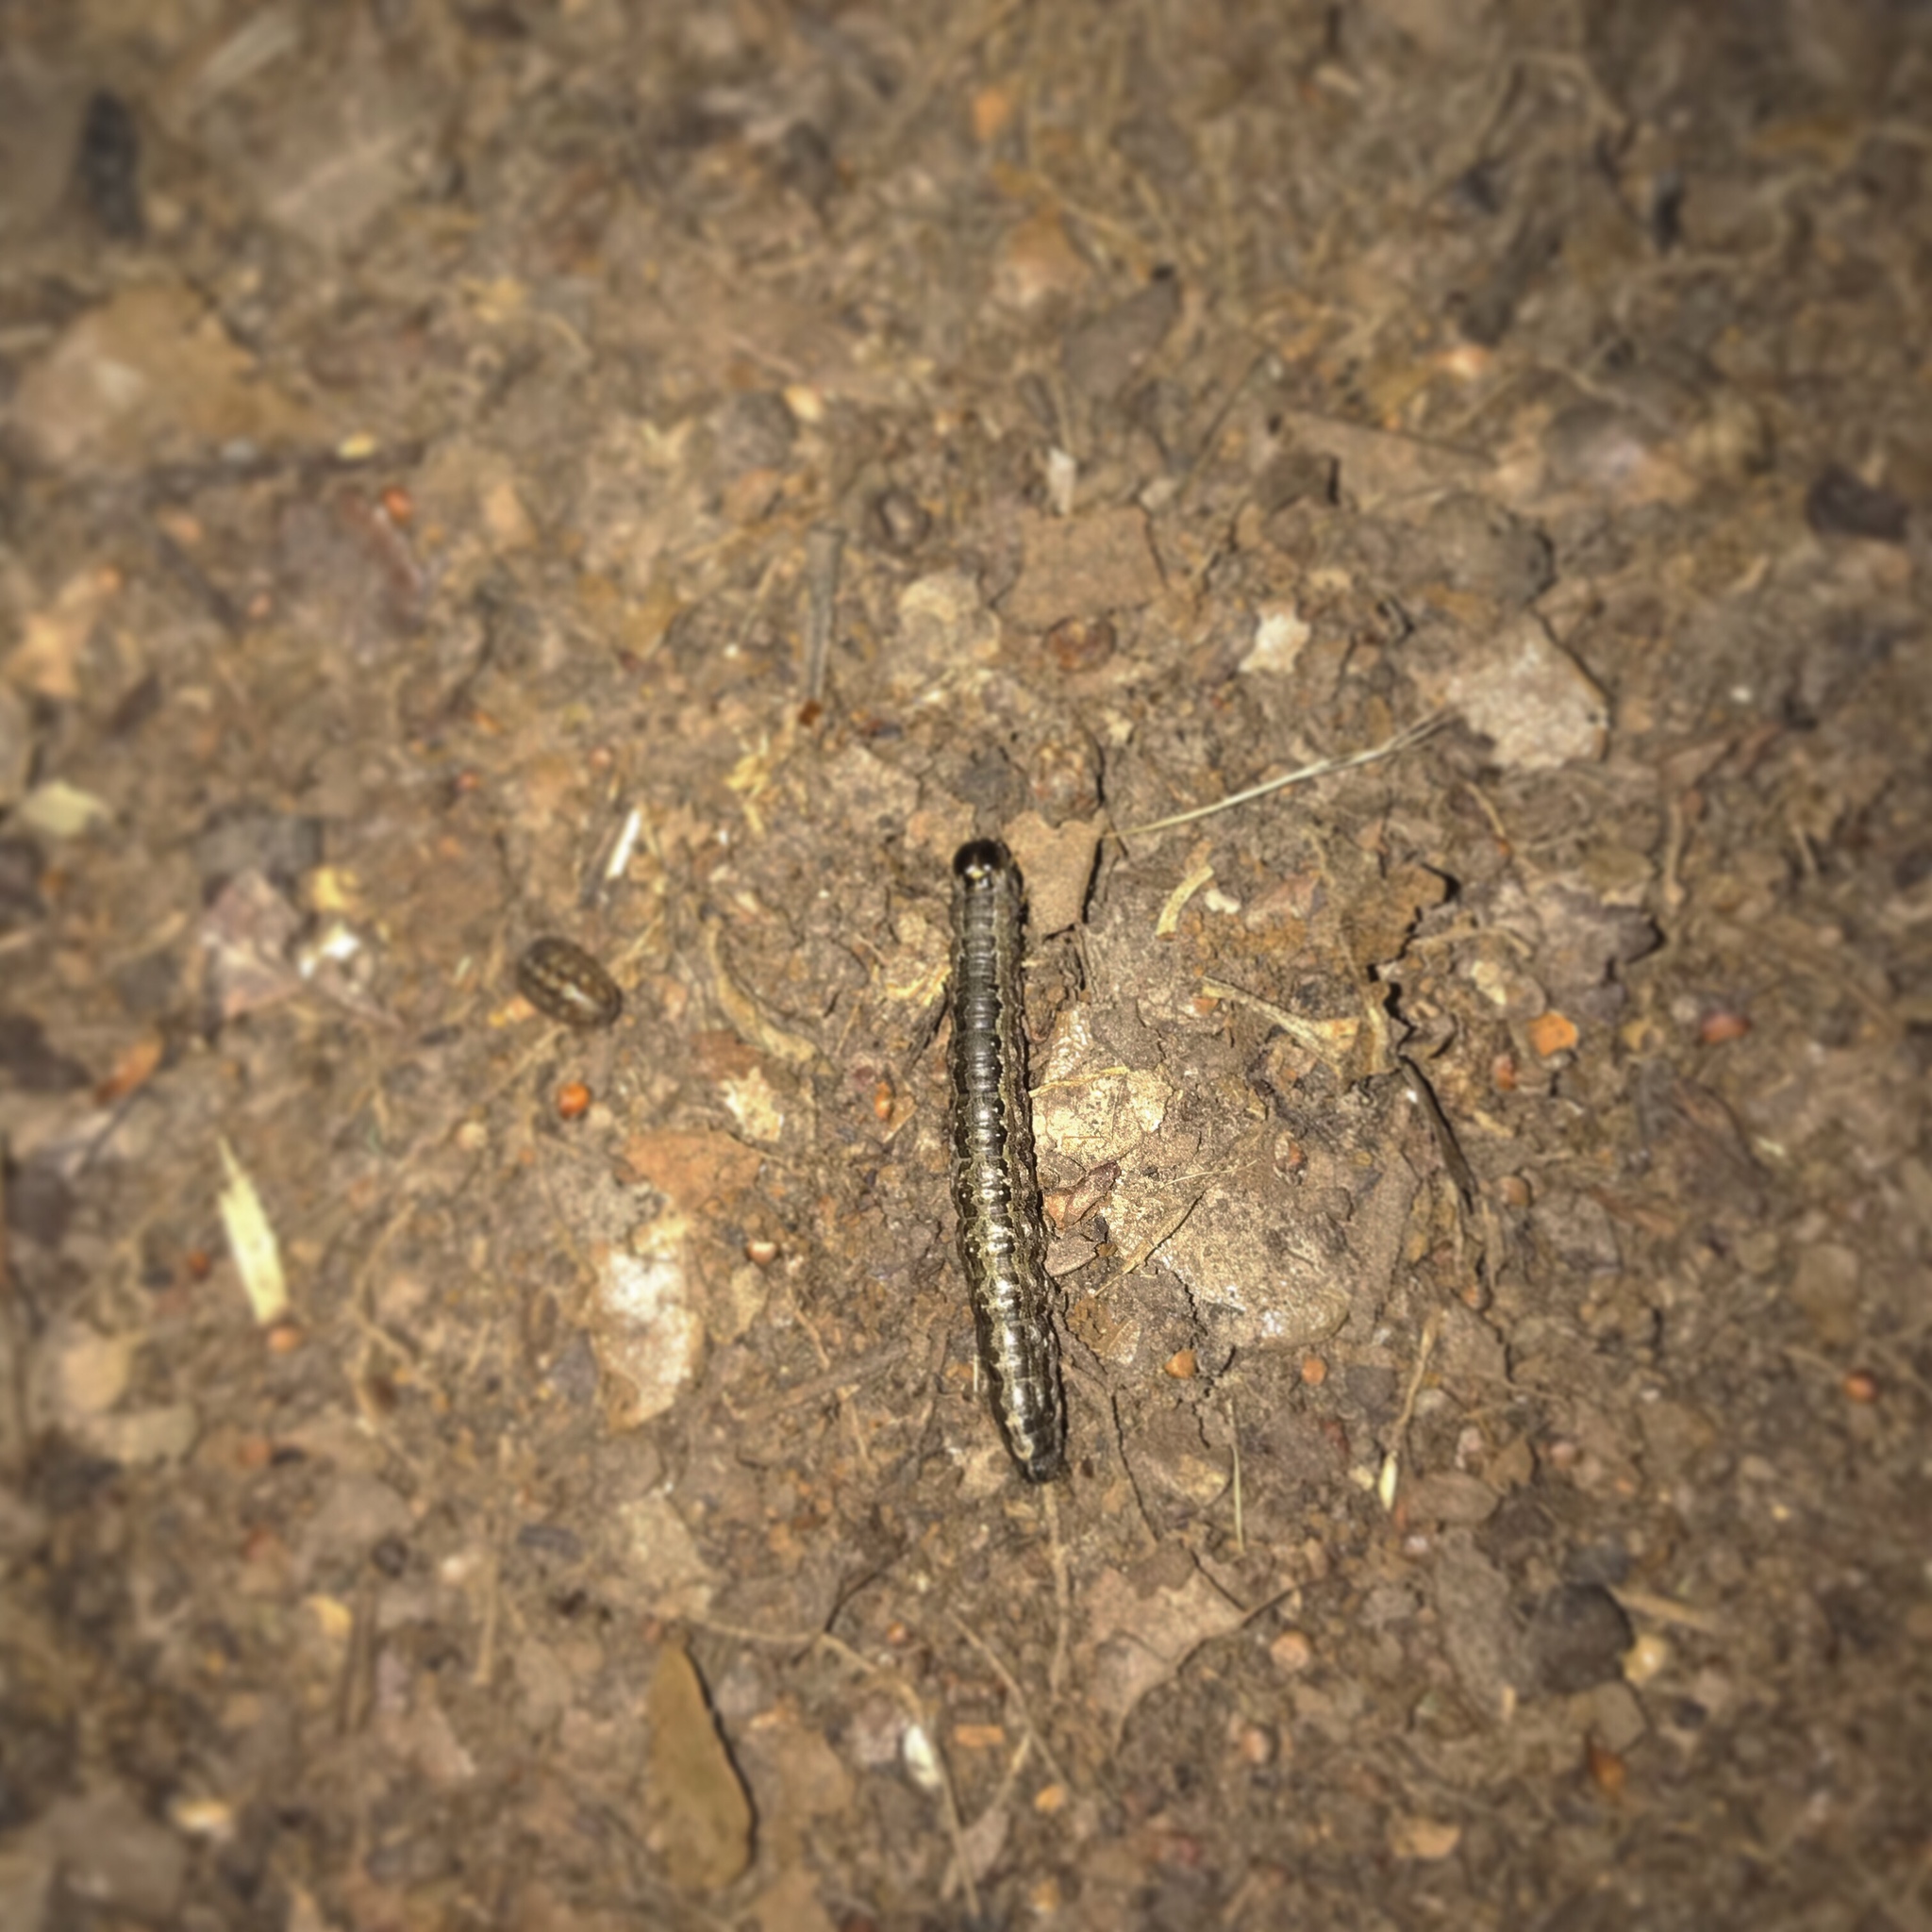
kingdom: Animalia
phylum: Arthropoda
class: Insecta
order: Lepidoptera
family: Erebidae
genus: Phoberia
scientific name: Phoberia atomaris
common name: Common oak moth
